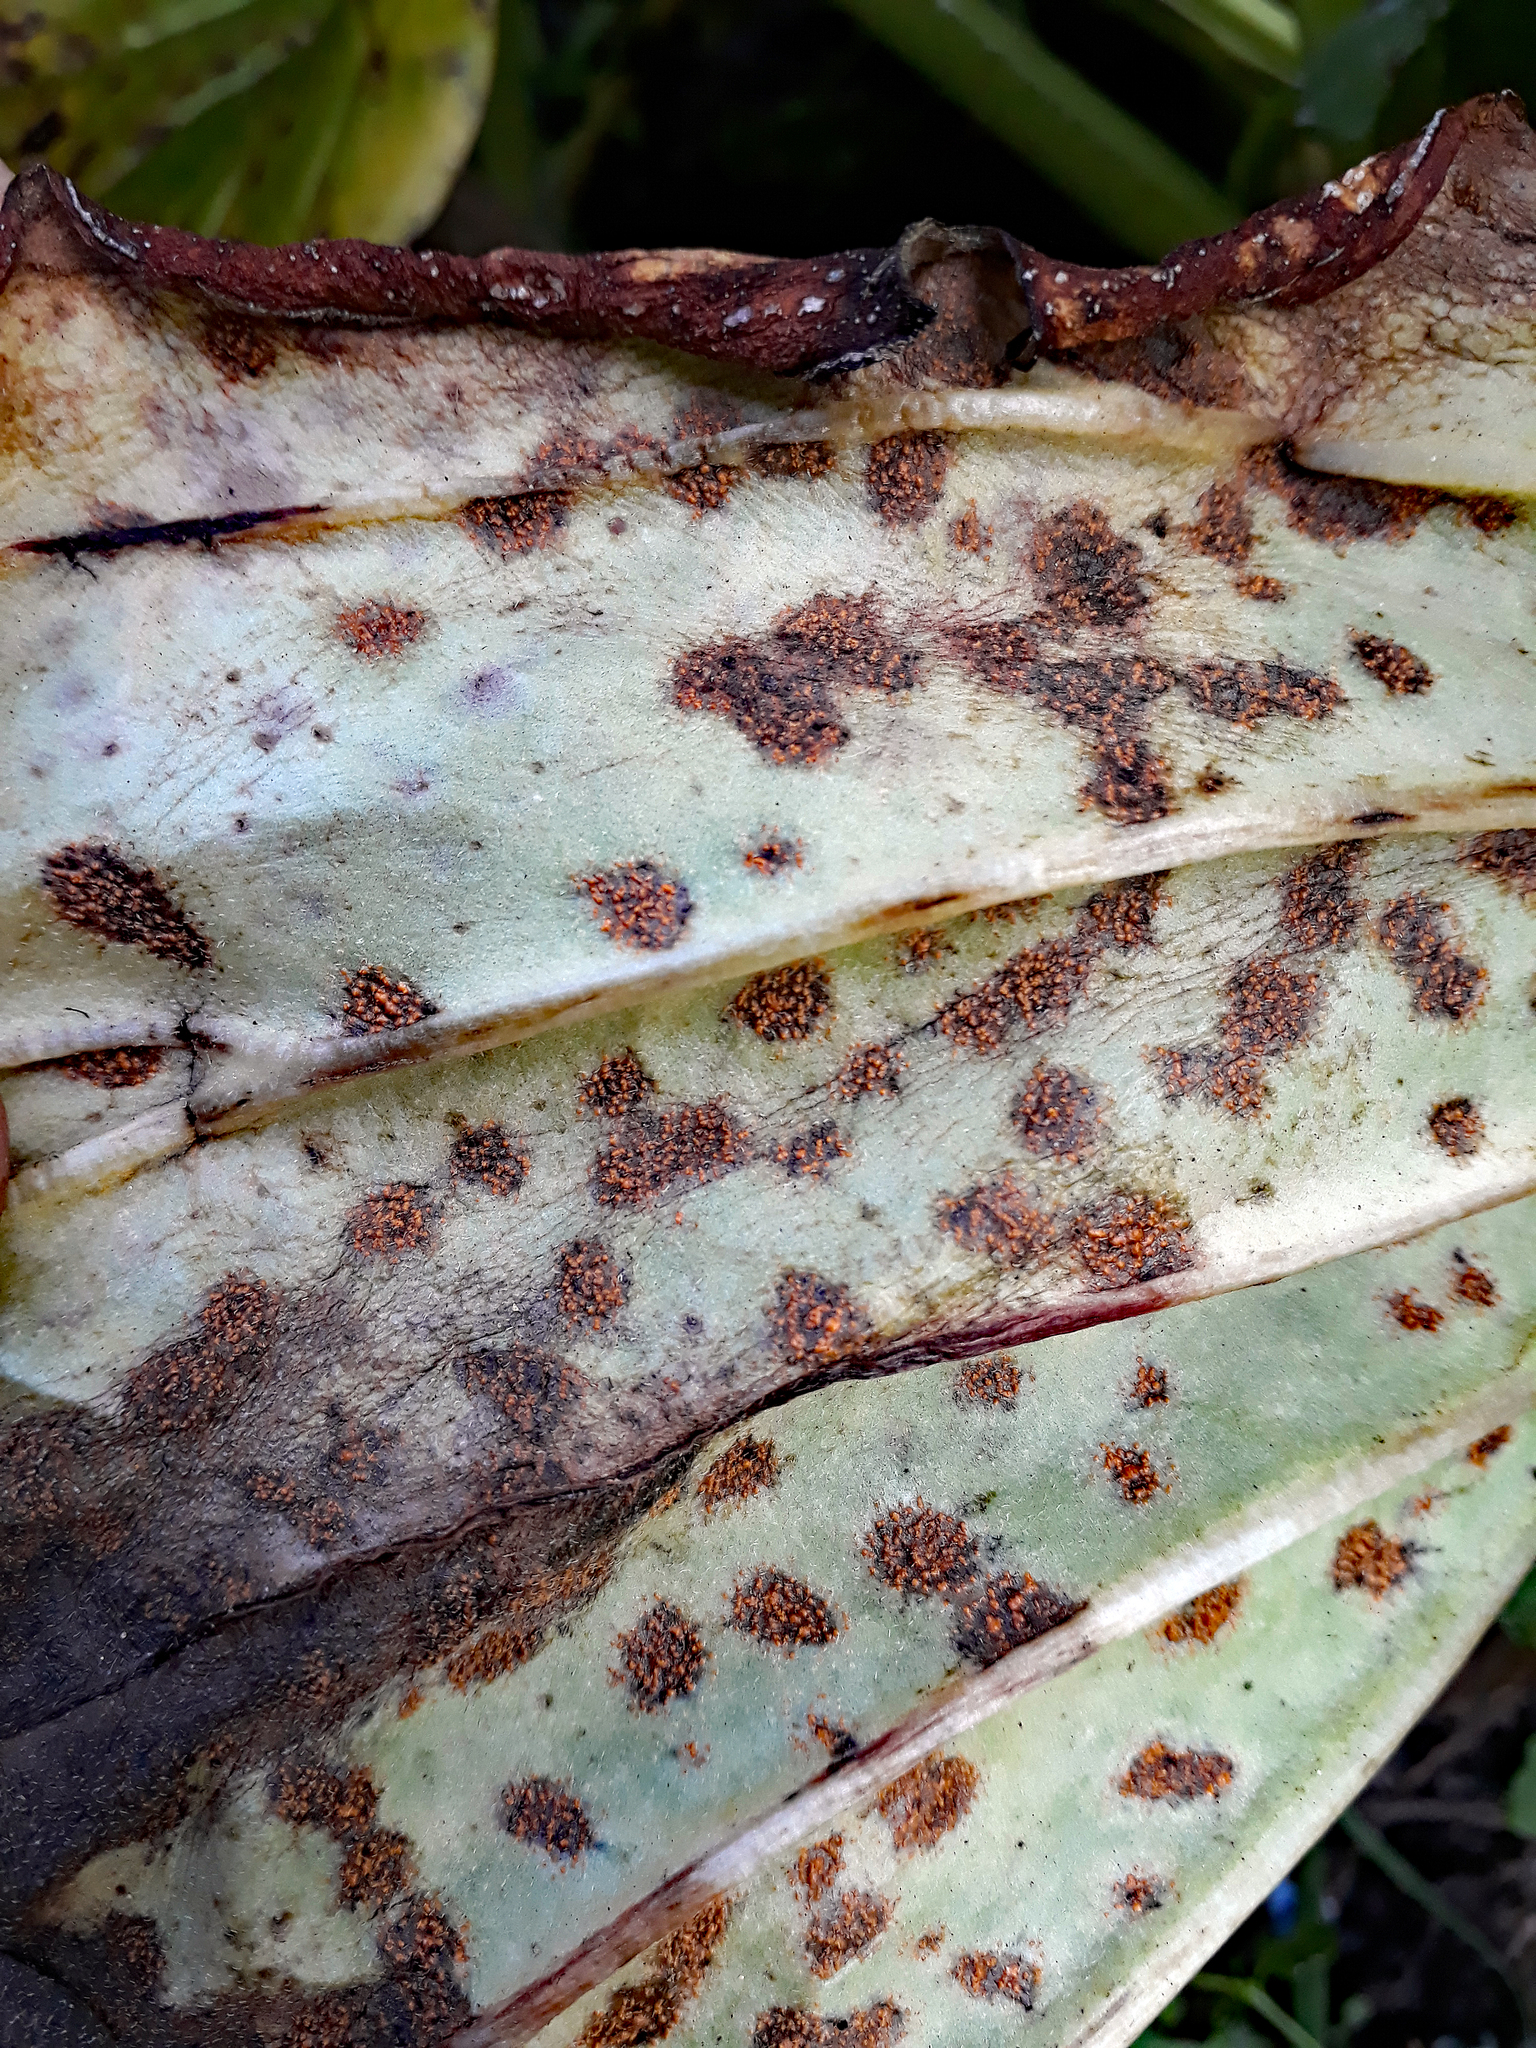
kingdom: Fungi
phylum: Basidiomycota
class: Pucciniomycetes
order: Pucciniales
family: Pucciniastraceae
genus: Pucciniastrum
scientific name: Pucciniastrum myosotidii
